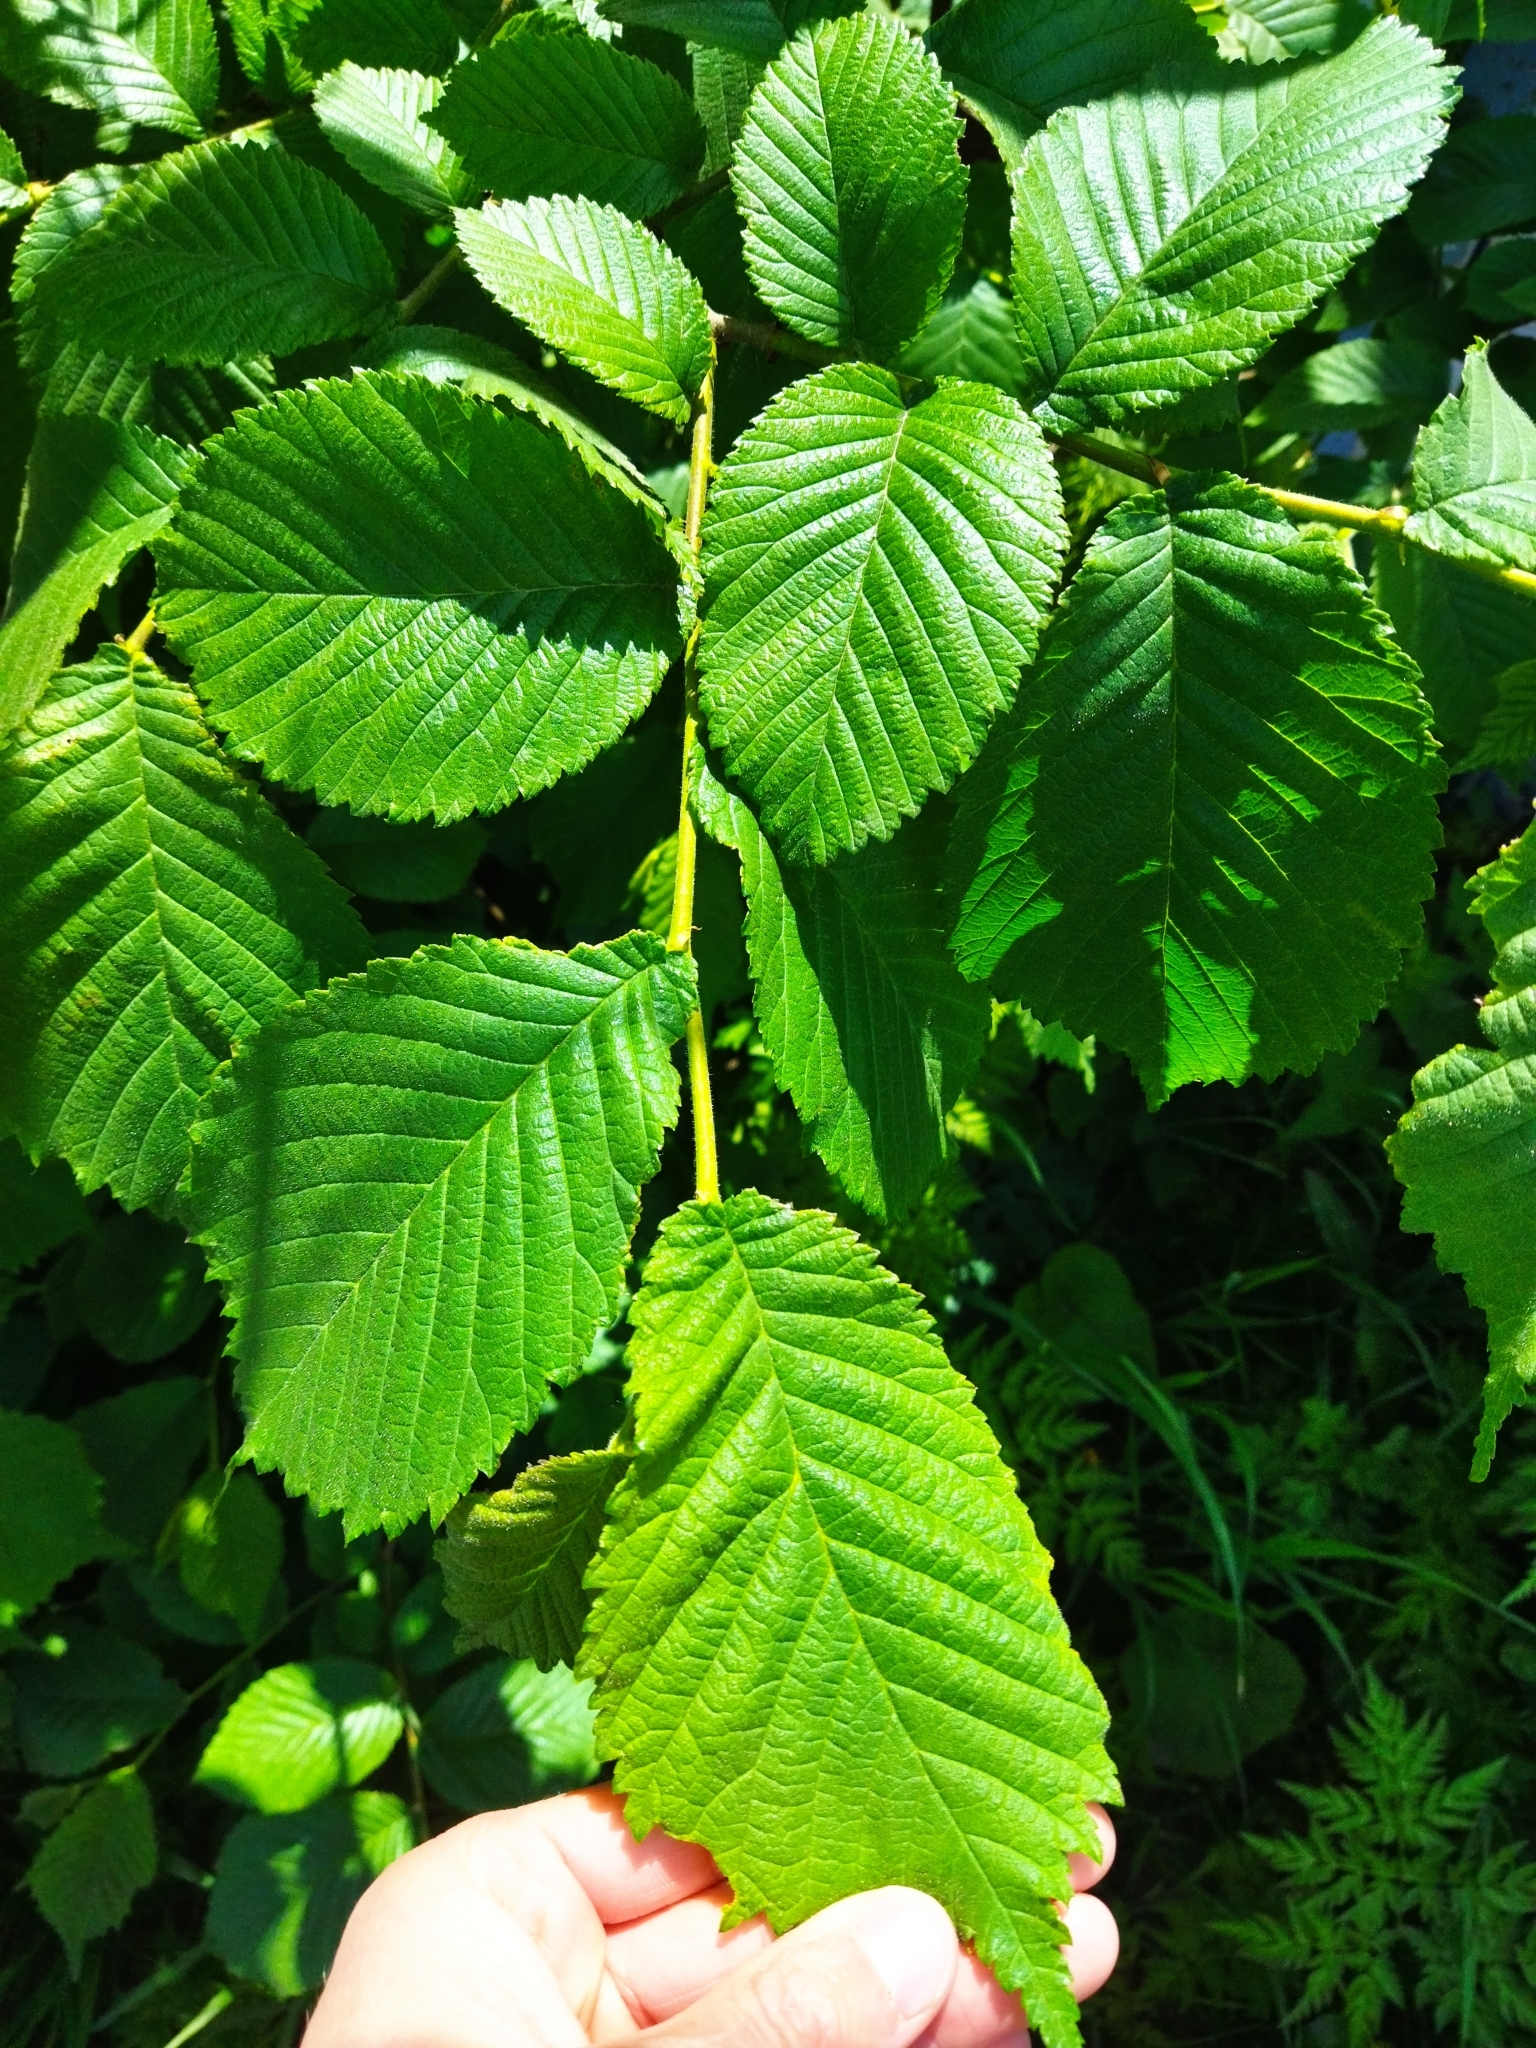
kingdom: Plantae
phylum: Tracheophyta
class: Magnoliopsida
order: Rosales
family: Ulmaceae
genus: Ulmus
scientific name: Ulmus glabra
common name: Wych elm
